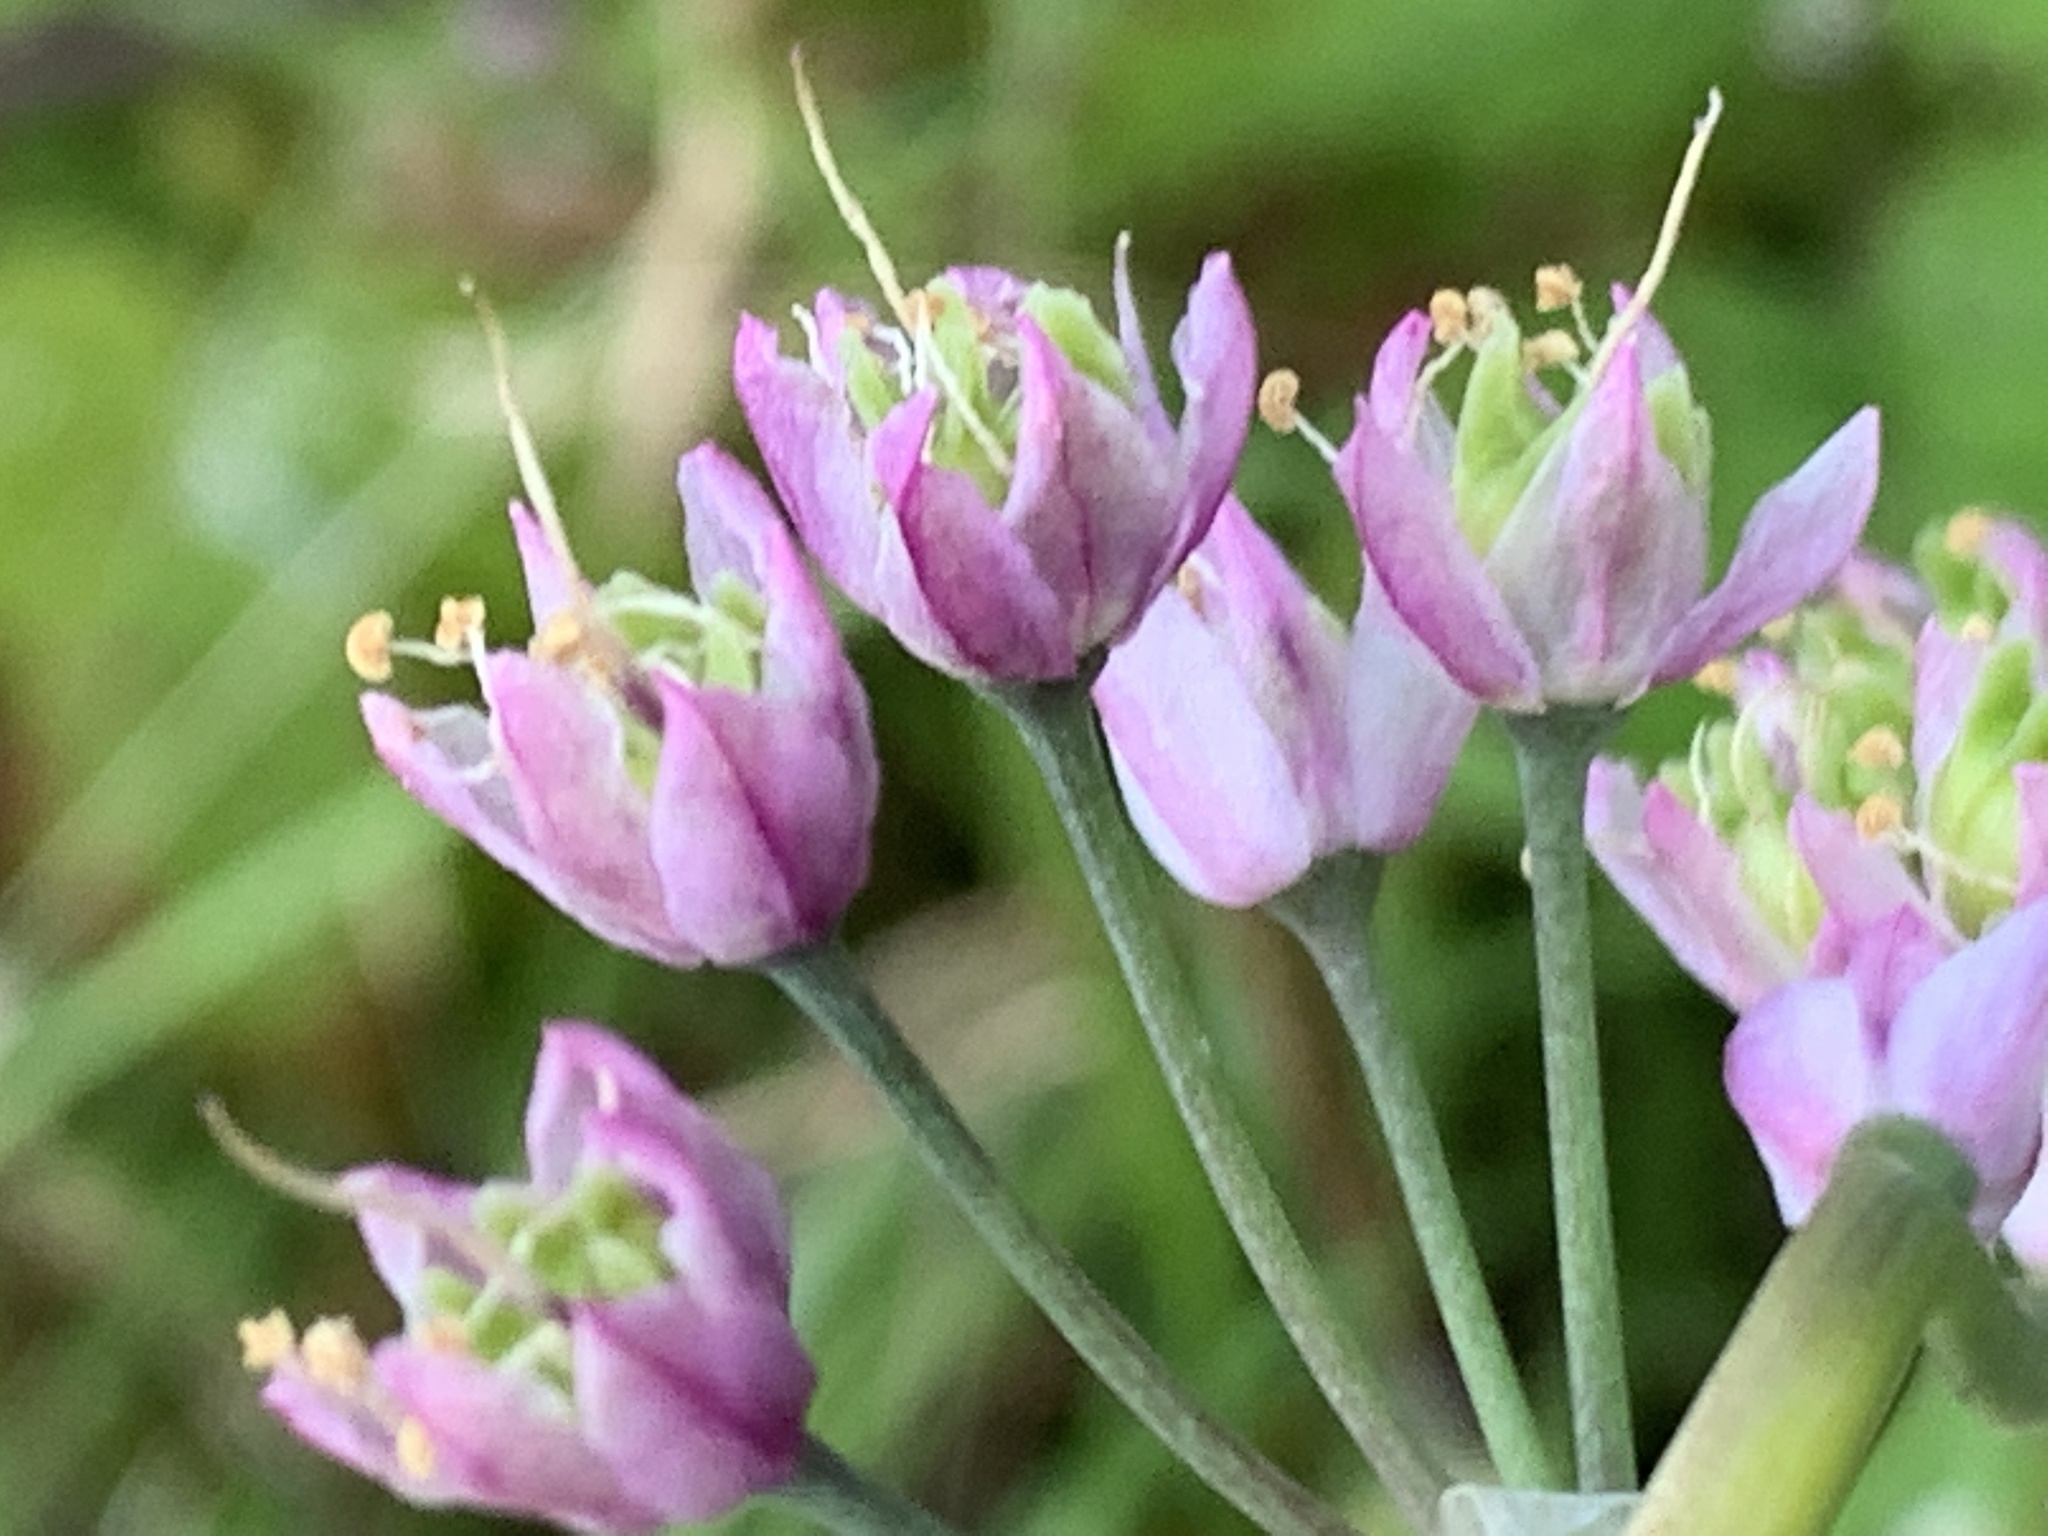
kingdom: Plantae
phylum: Tracheophyta
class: Liliopsida
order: Asparagales
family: Amaryllidaceae
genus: Allium
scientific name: Allium cernuum
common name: Nodding onion
